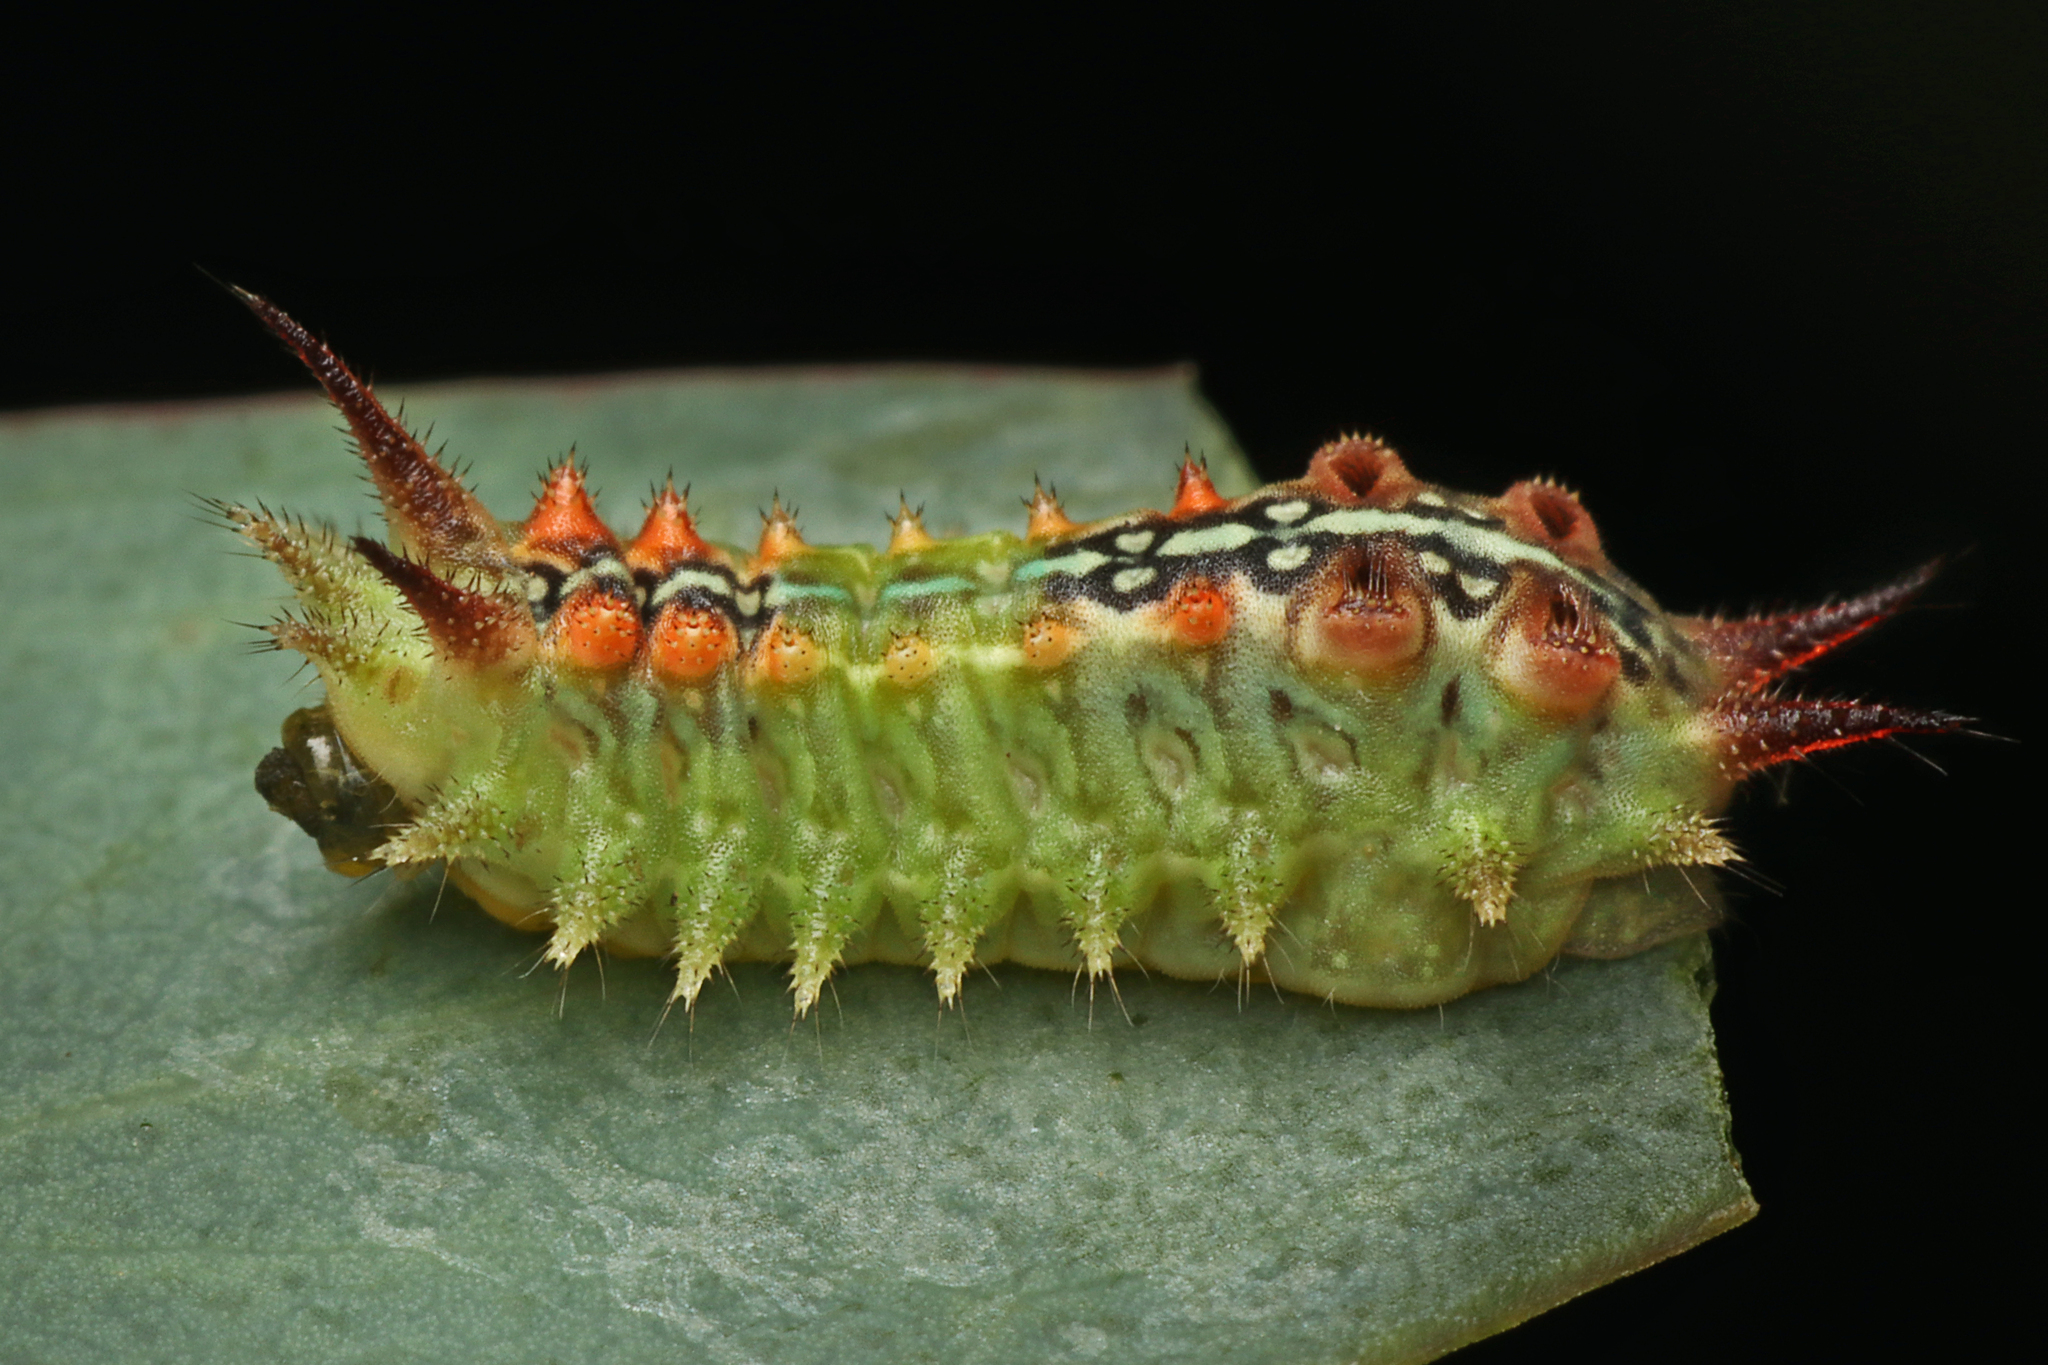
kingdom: Animalia
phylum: Arthropoda
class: Insecta
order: Lepidoptera
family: Limacodidae
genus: Doratifera
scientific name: Doratifera quadriguttata
